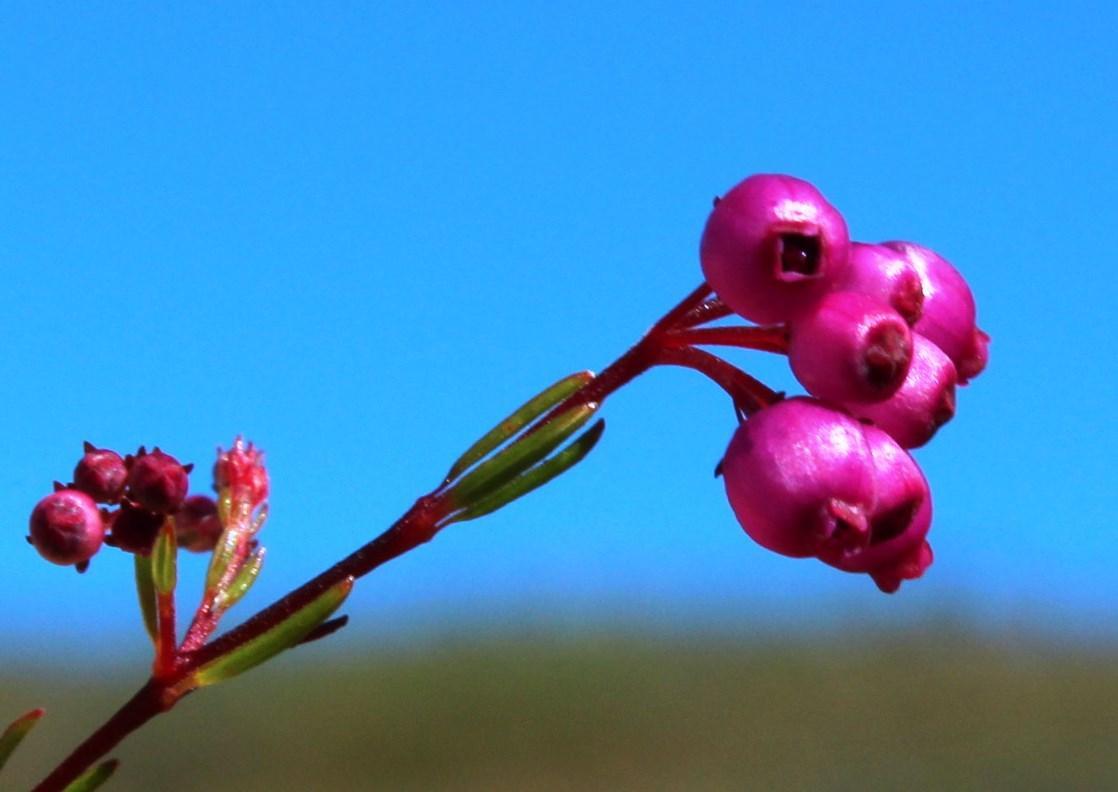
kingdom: Plantae
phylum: Tracheophyta
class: Magnoliopsida
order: Ericales
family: Ericaceae
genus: Erica
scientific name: Erica multumbellifera
